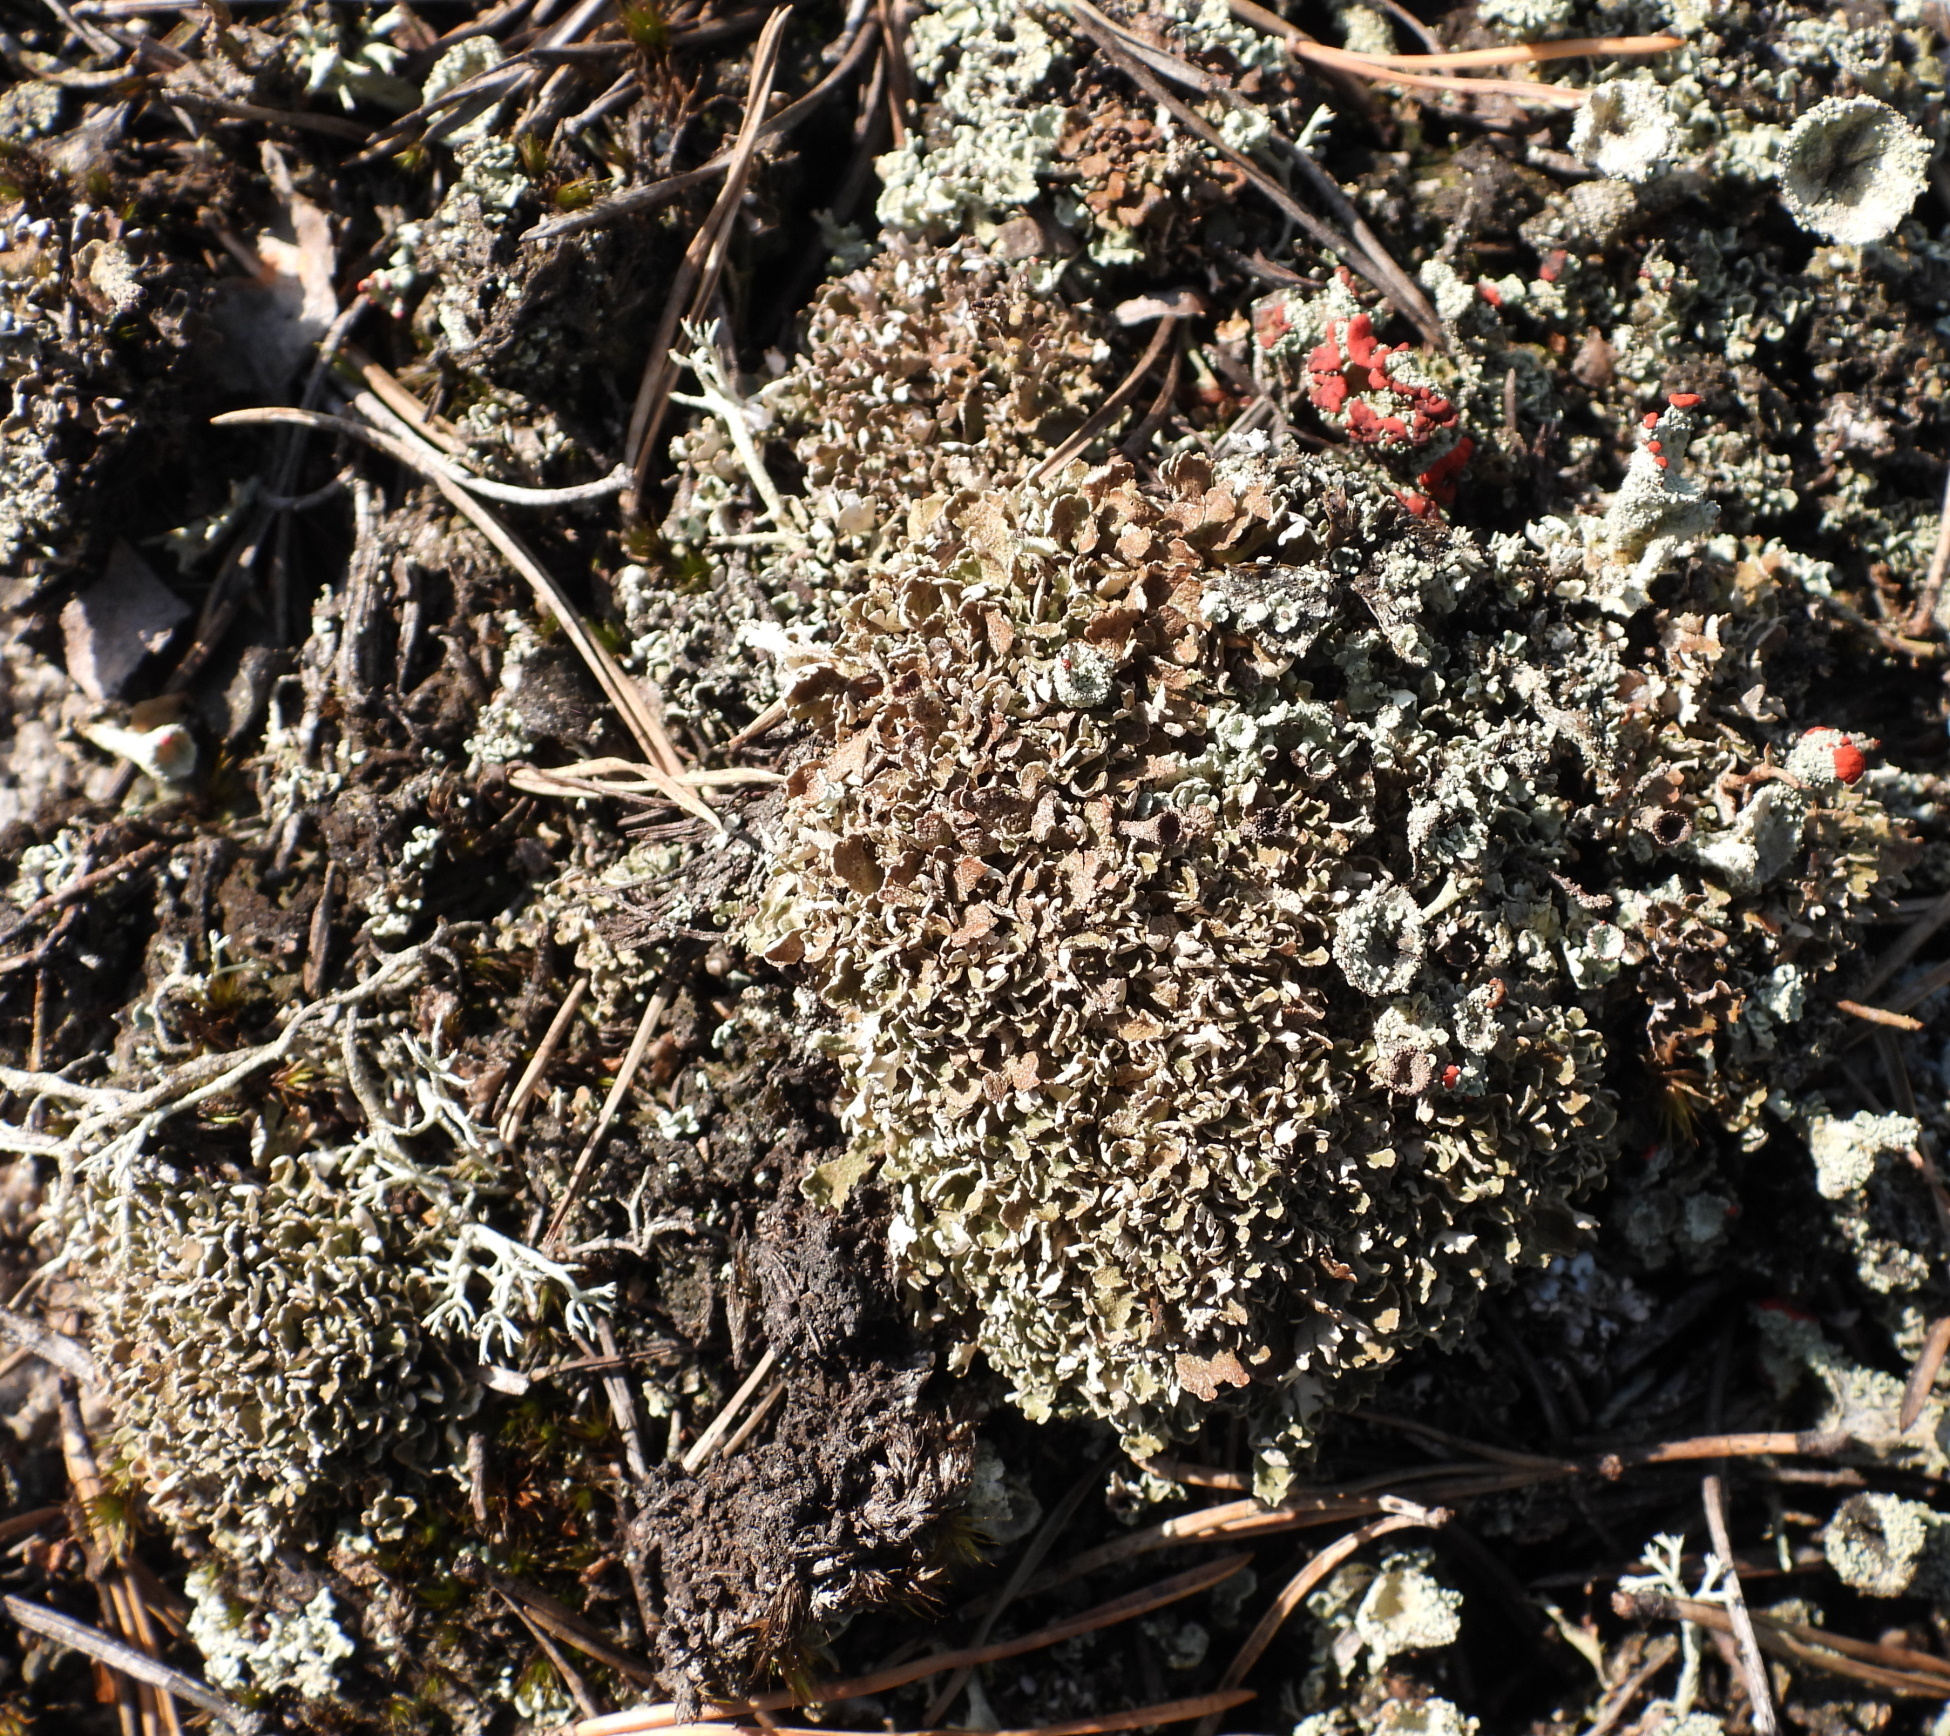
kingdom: Fungi
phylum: Ascomycota
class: Lecanoromycetes
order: Lecanorales
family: Cladoniaceae
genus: Cladonia
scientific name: Cladonia strepsilis
